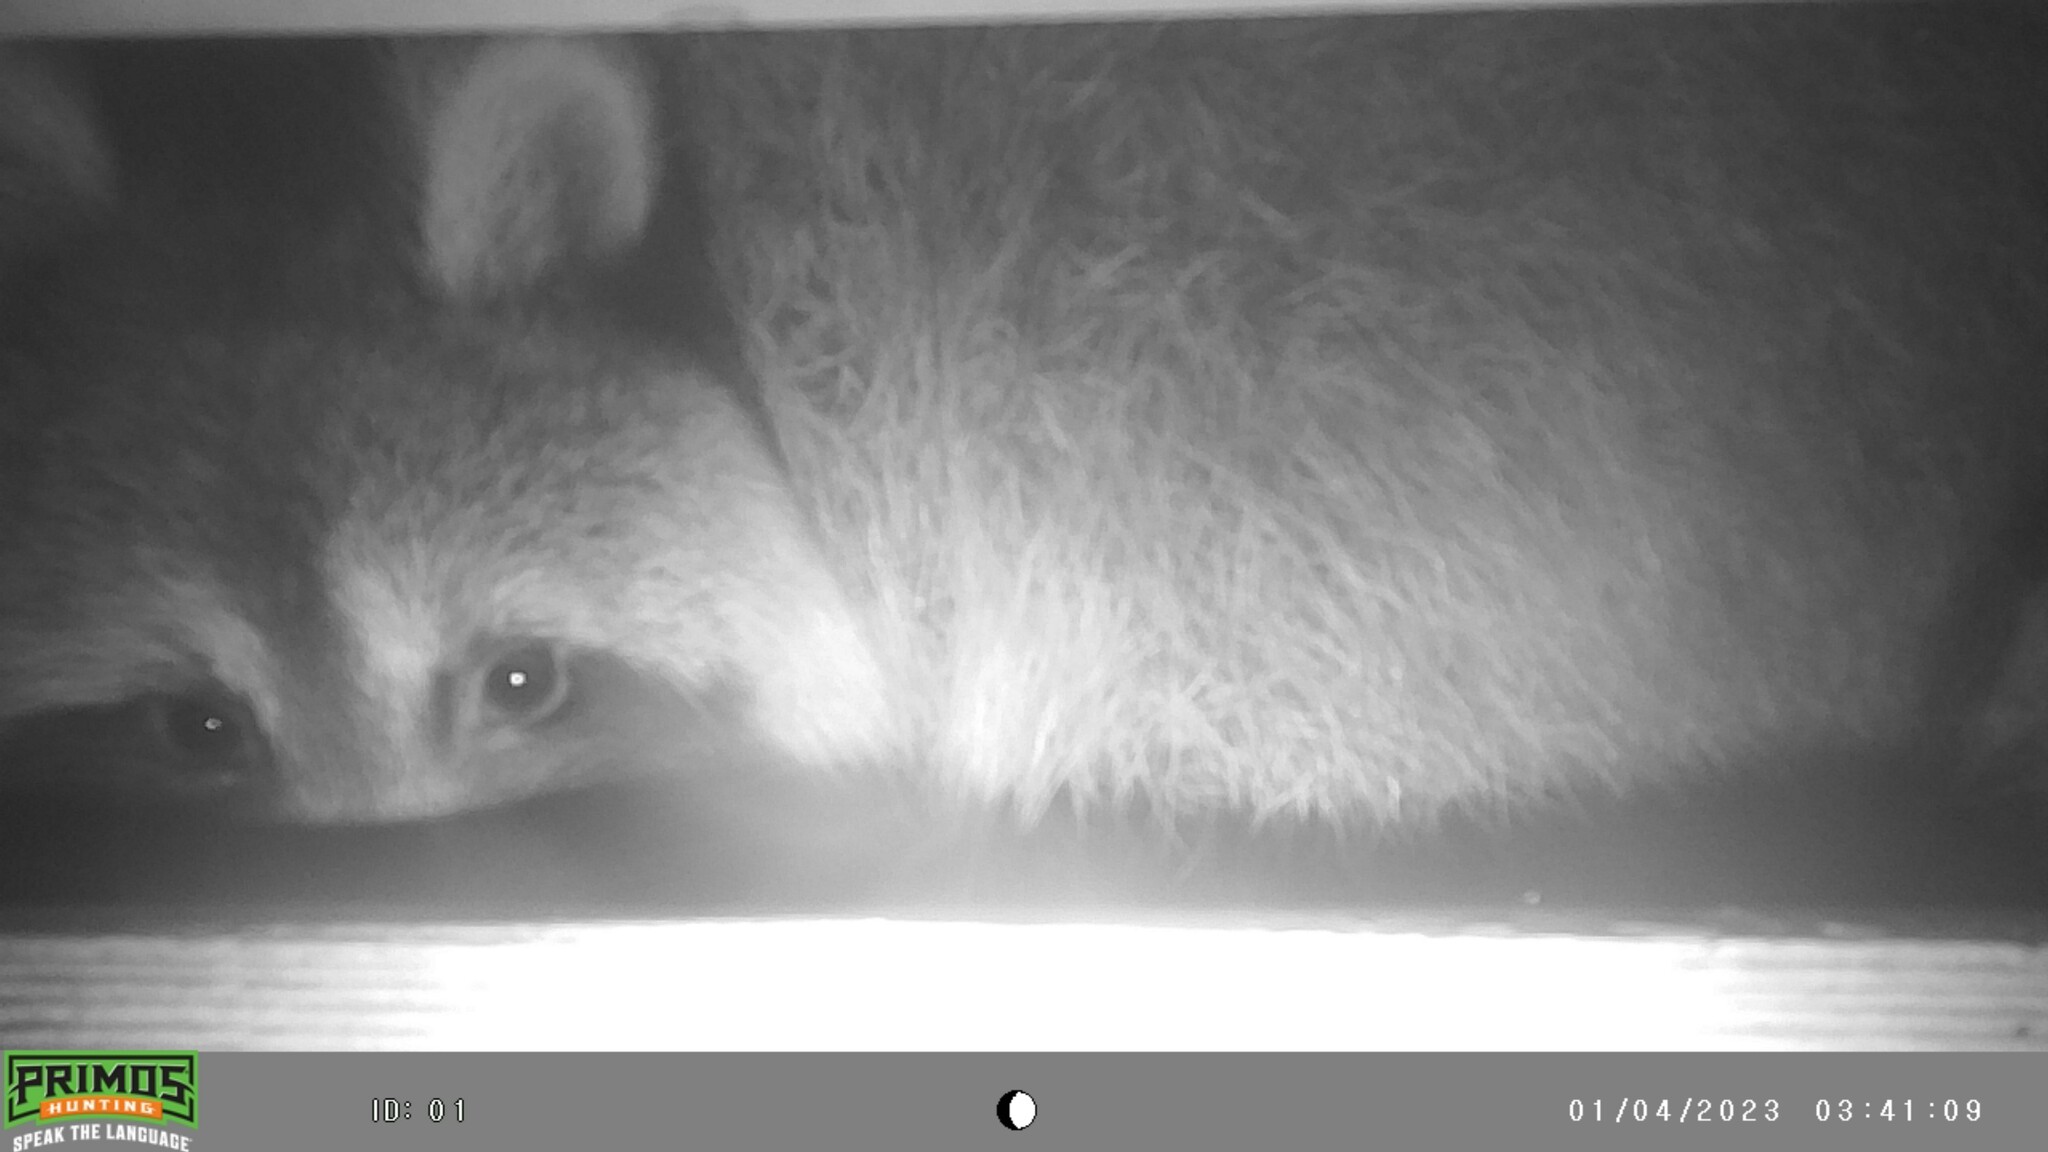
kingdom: Animalia
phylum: Chordata
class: Mammalia
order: Carnivora
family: Procyonidae
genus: Procyon
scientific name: Procyon lotor
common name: Raccoon
